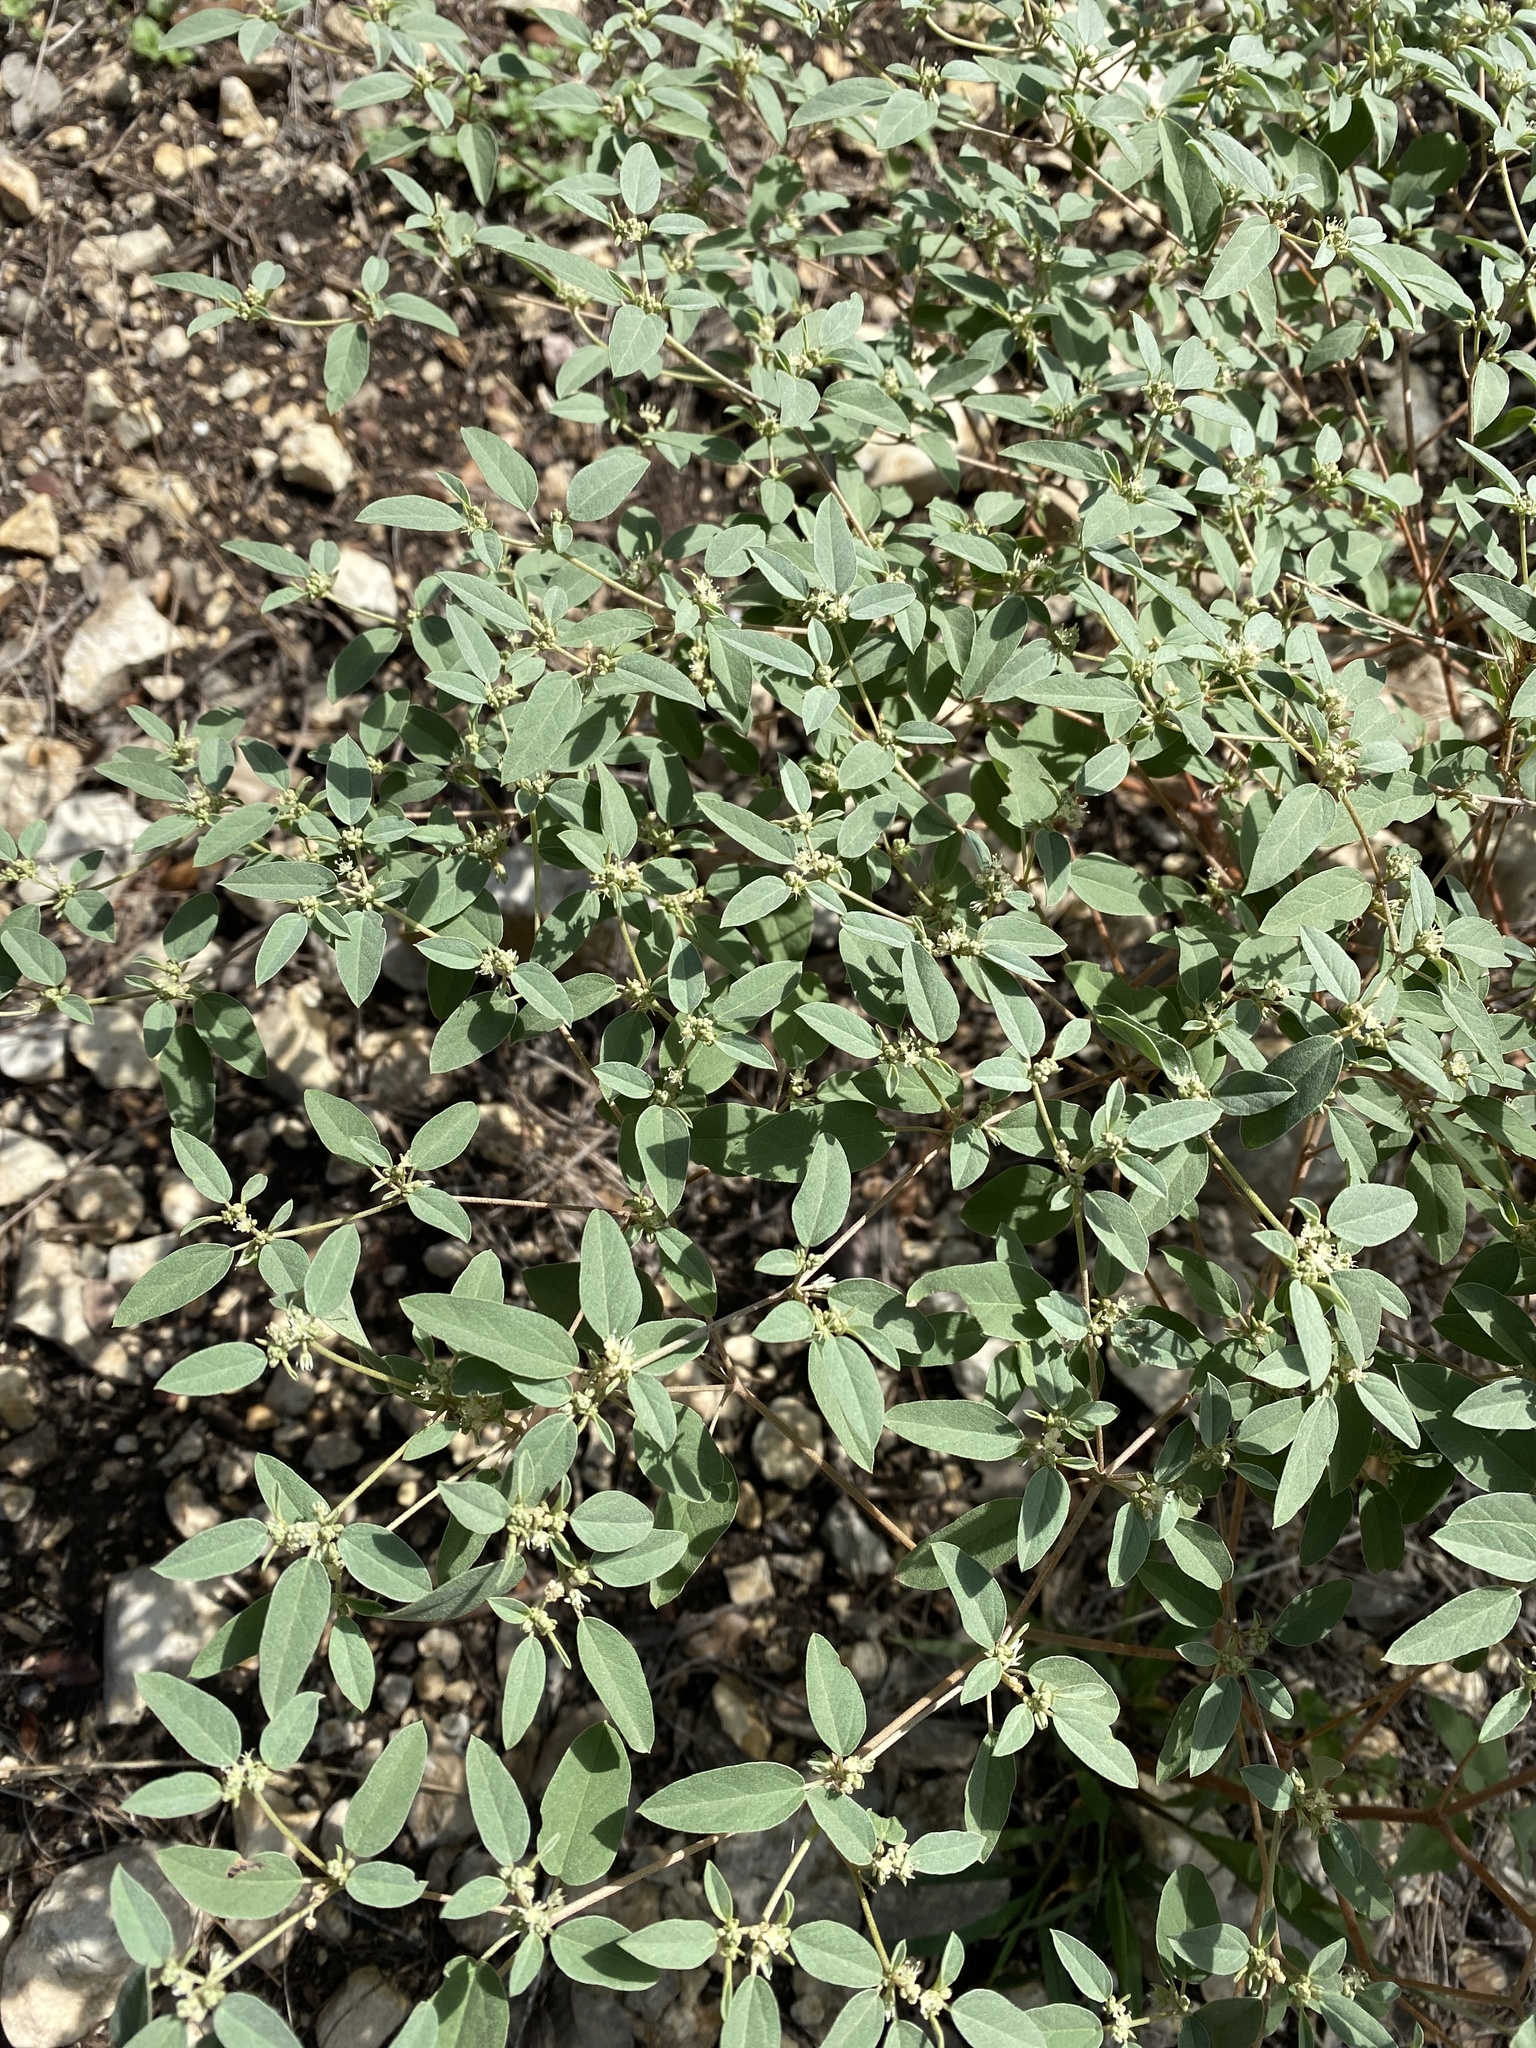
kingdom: Plantae
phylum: Tracheophyta
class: Magnoliopsida
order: Malpighiales
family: Euphorbiaceae
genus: Croton
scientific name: Croton monanthogynus
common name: One-seed croton
